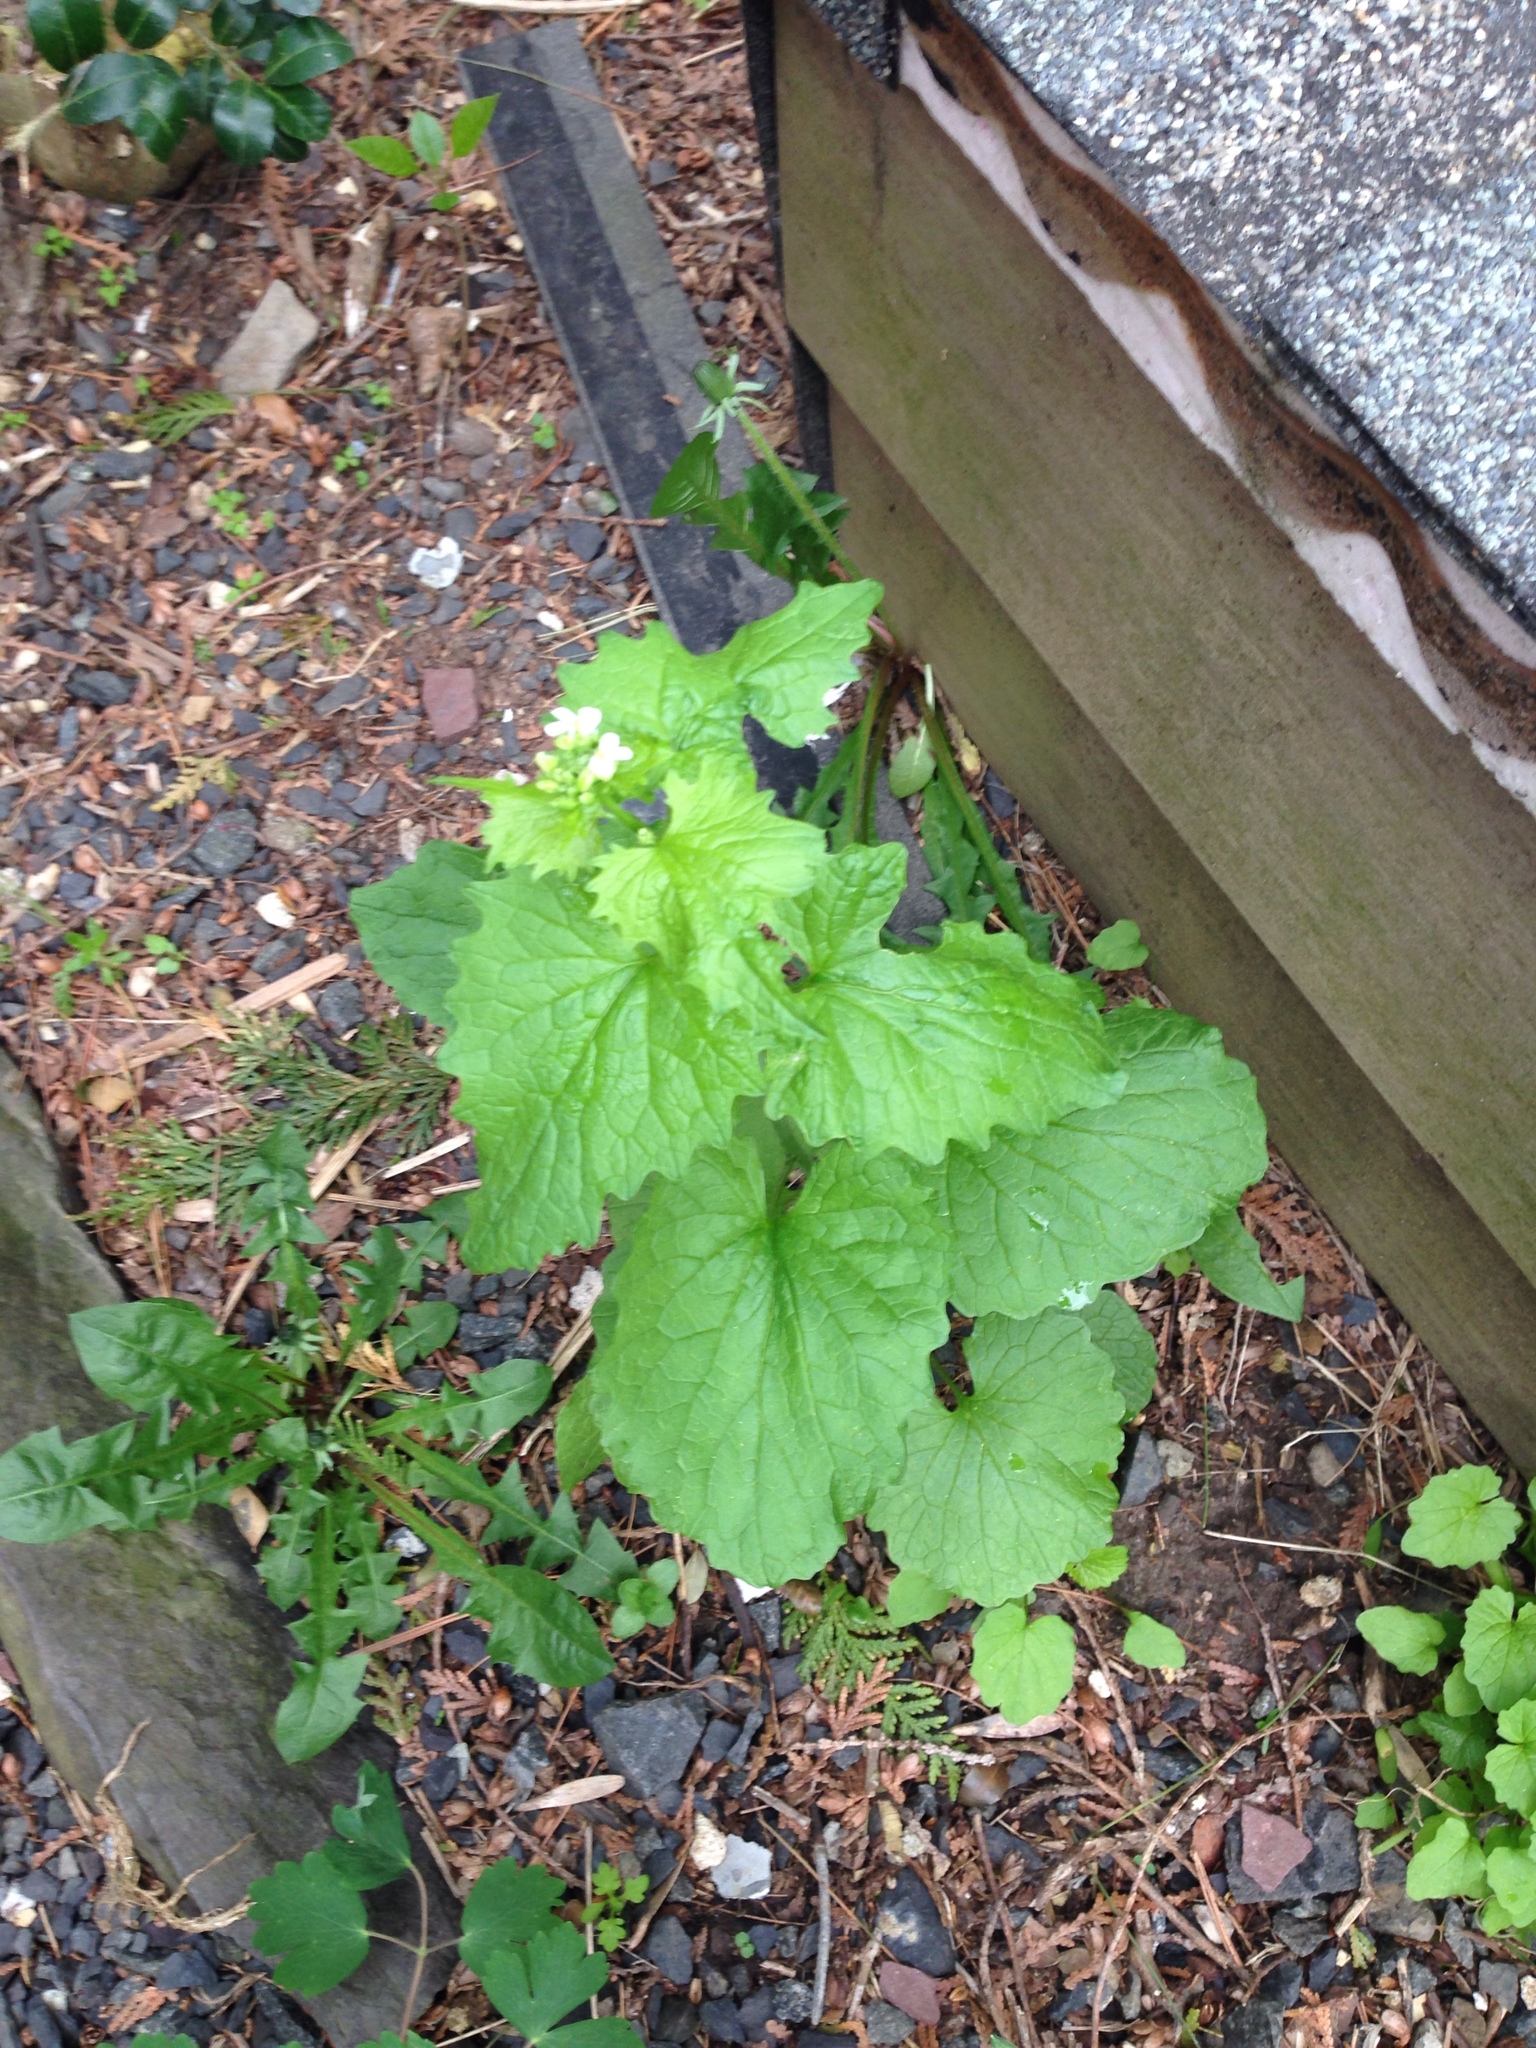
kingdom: Plantae
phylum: Tracheophyta
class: Magnoliopsida
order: Brassicales
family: Brassicaceae
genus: Alliaria
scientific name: Alliaria petiolata
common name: Garlic mustard
